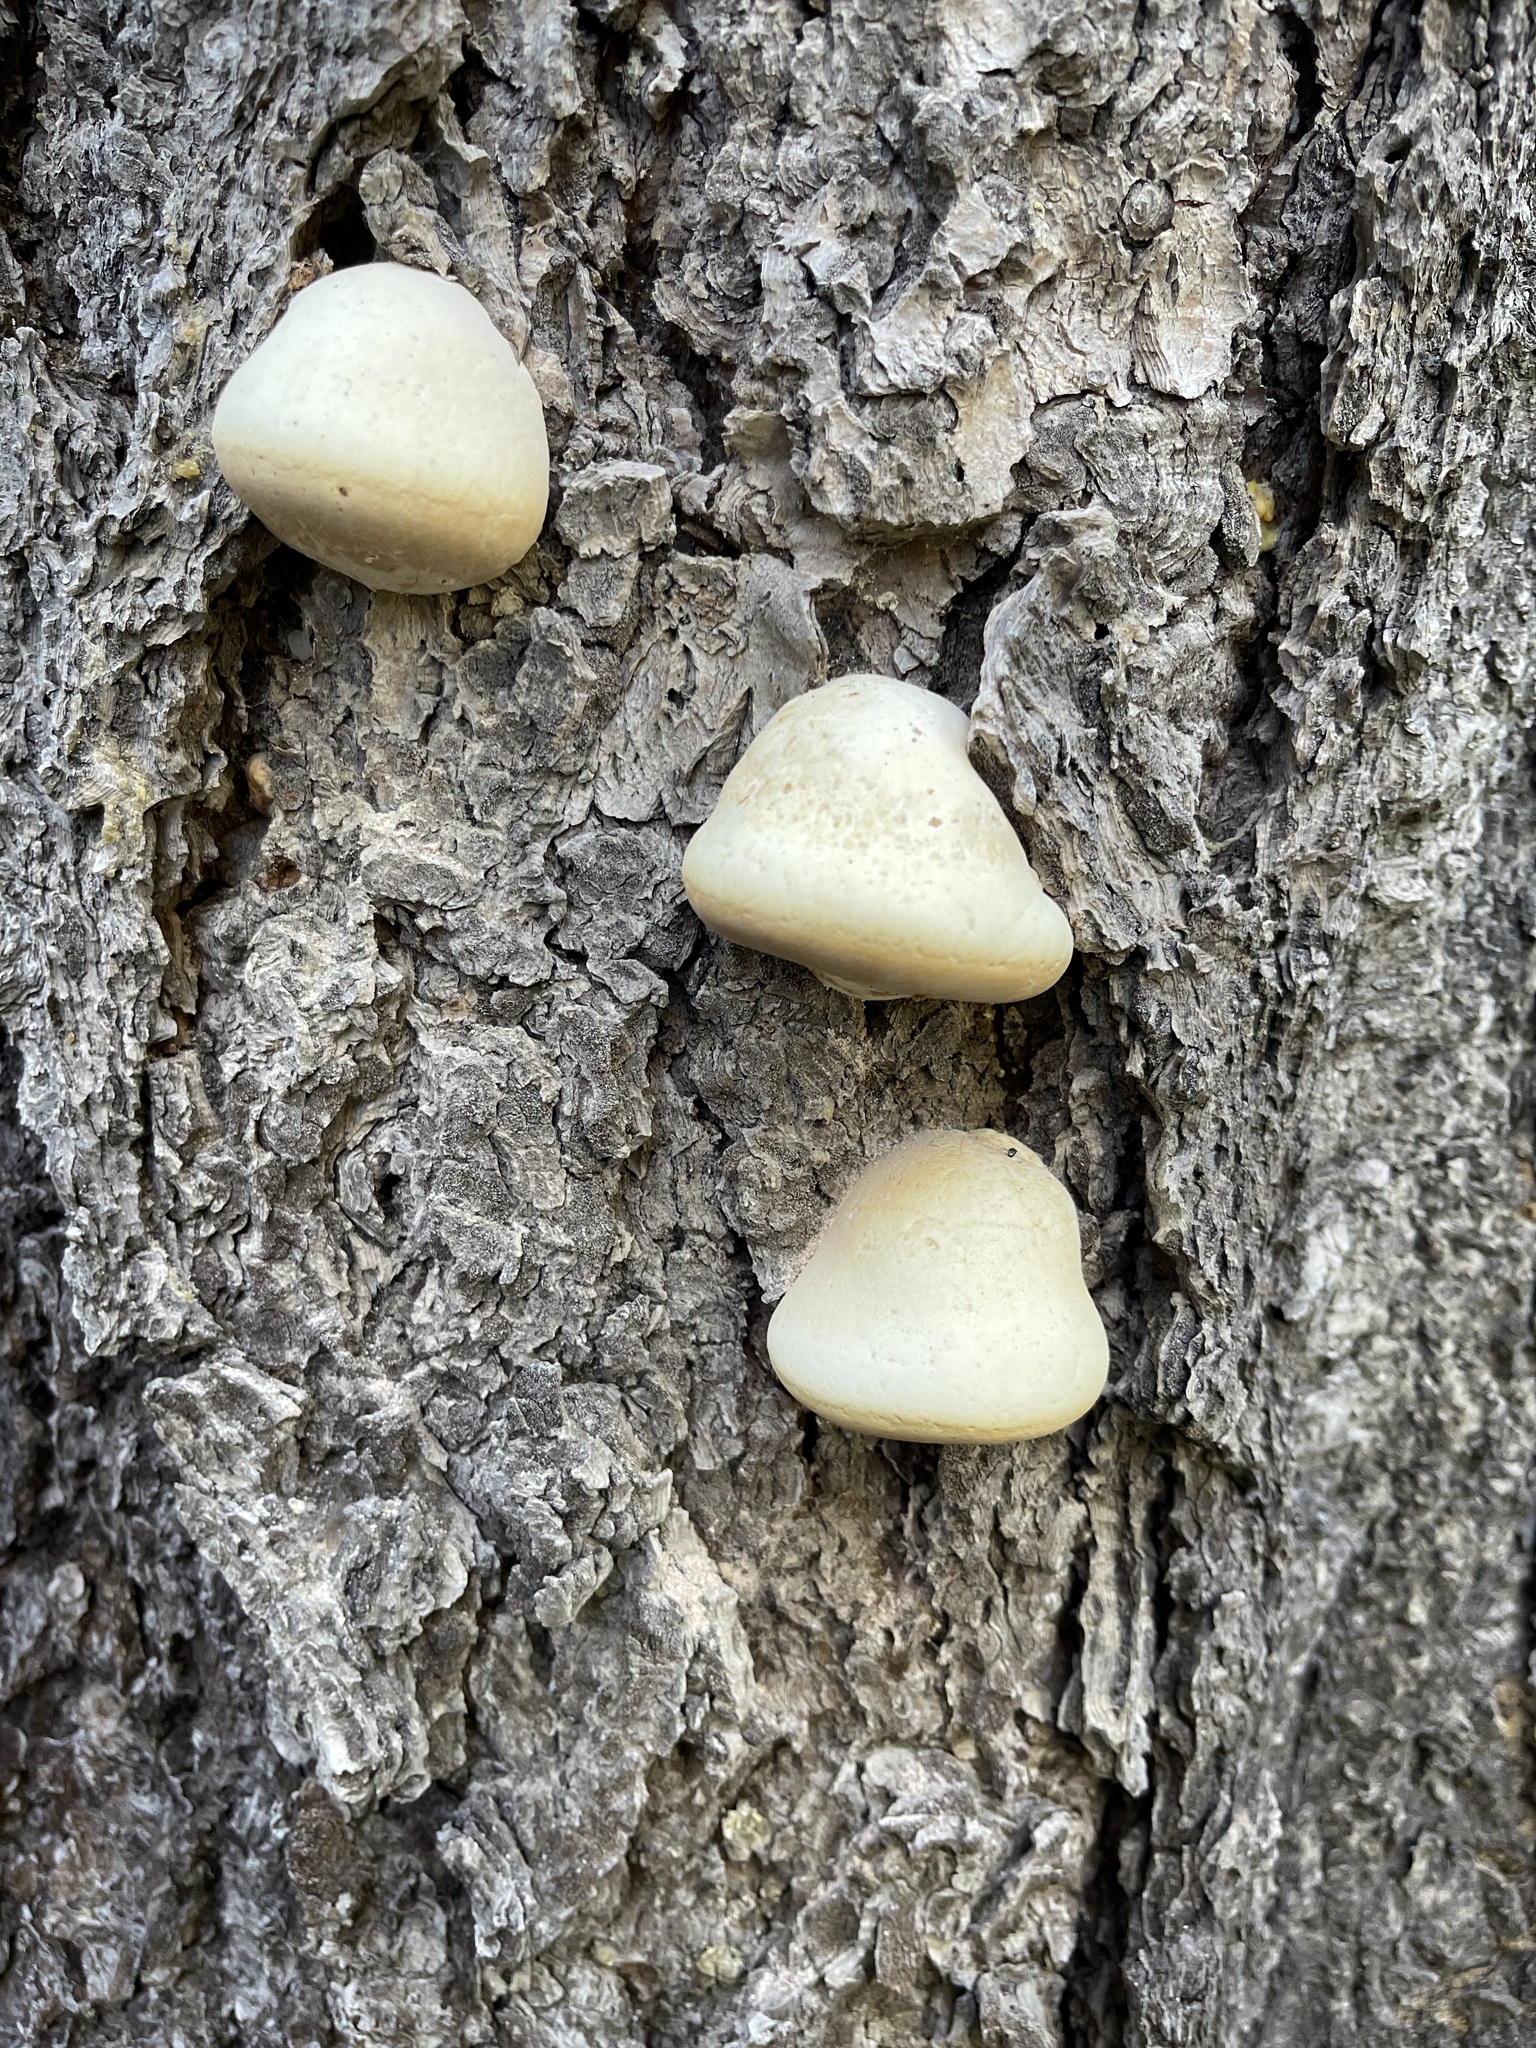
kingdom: Fungi
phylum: Basidiomycota
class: Agaricomycetes
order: Polyporales
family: Polyporaceae
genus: Cryptoporus
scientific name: Cryptoporus volvatus
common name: Veiled polypore
